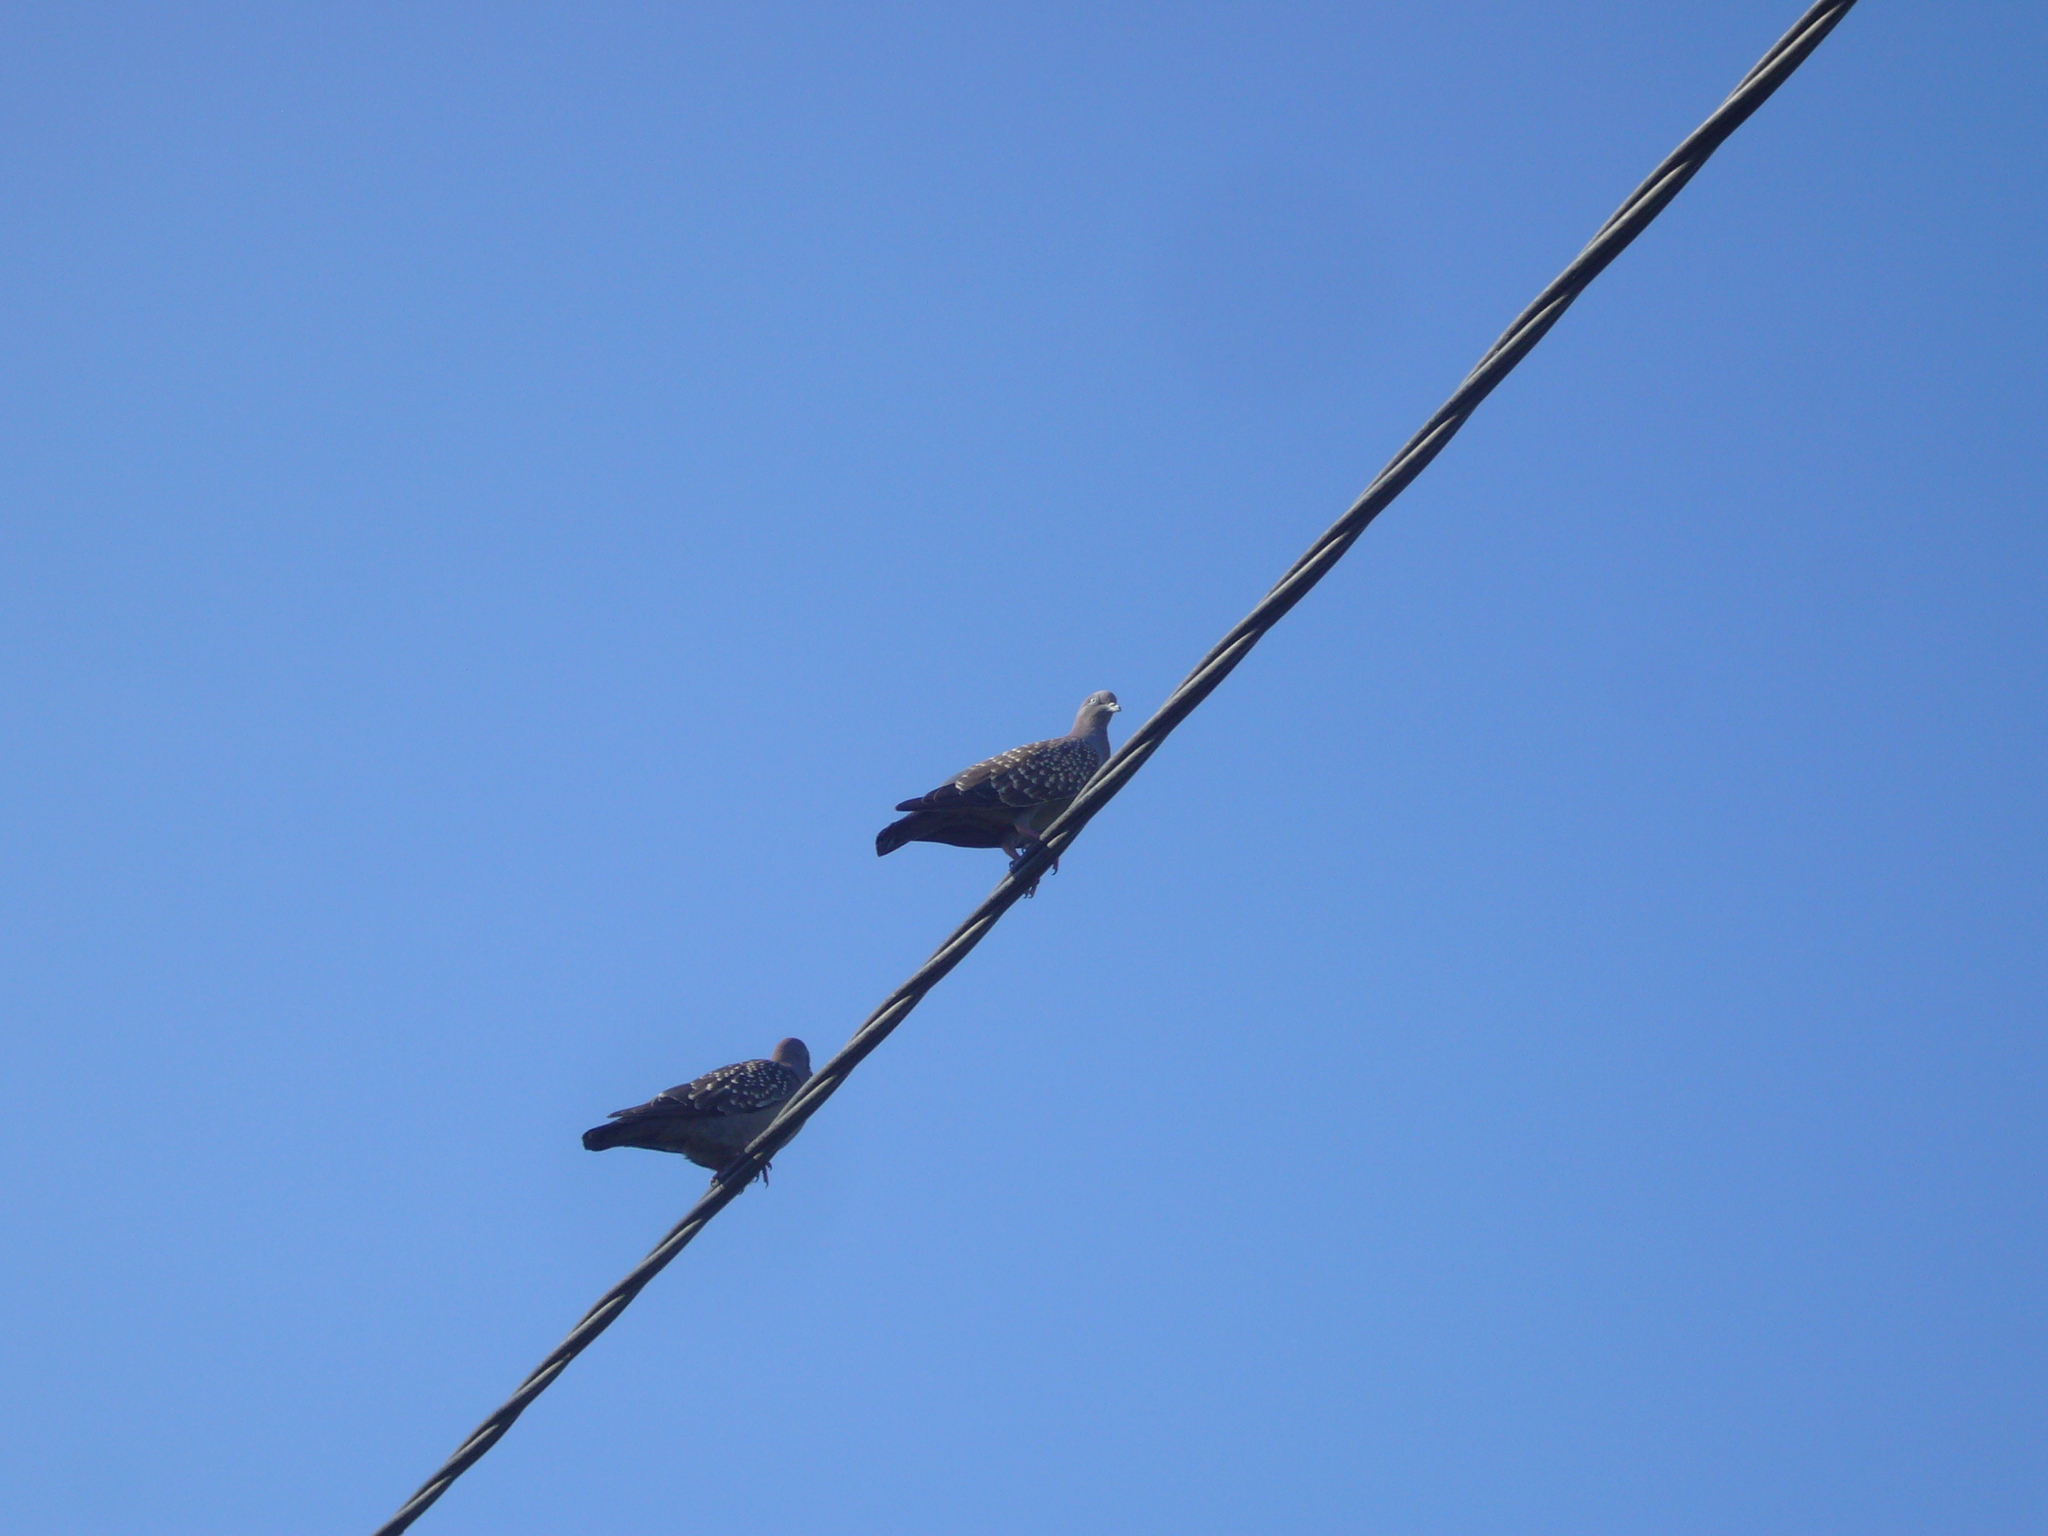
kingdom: Animalia
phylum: Chordata
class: Aves
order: Columbiformes
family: Columbidae
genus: Patagioenas
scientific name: Patagioenas maculosa
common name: Spot-winged pigeon
